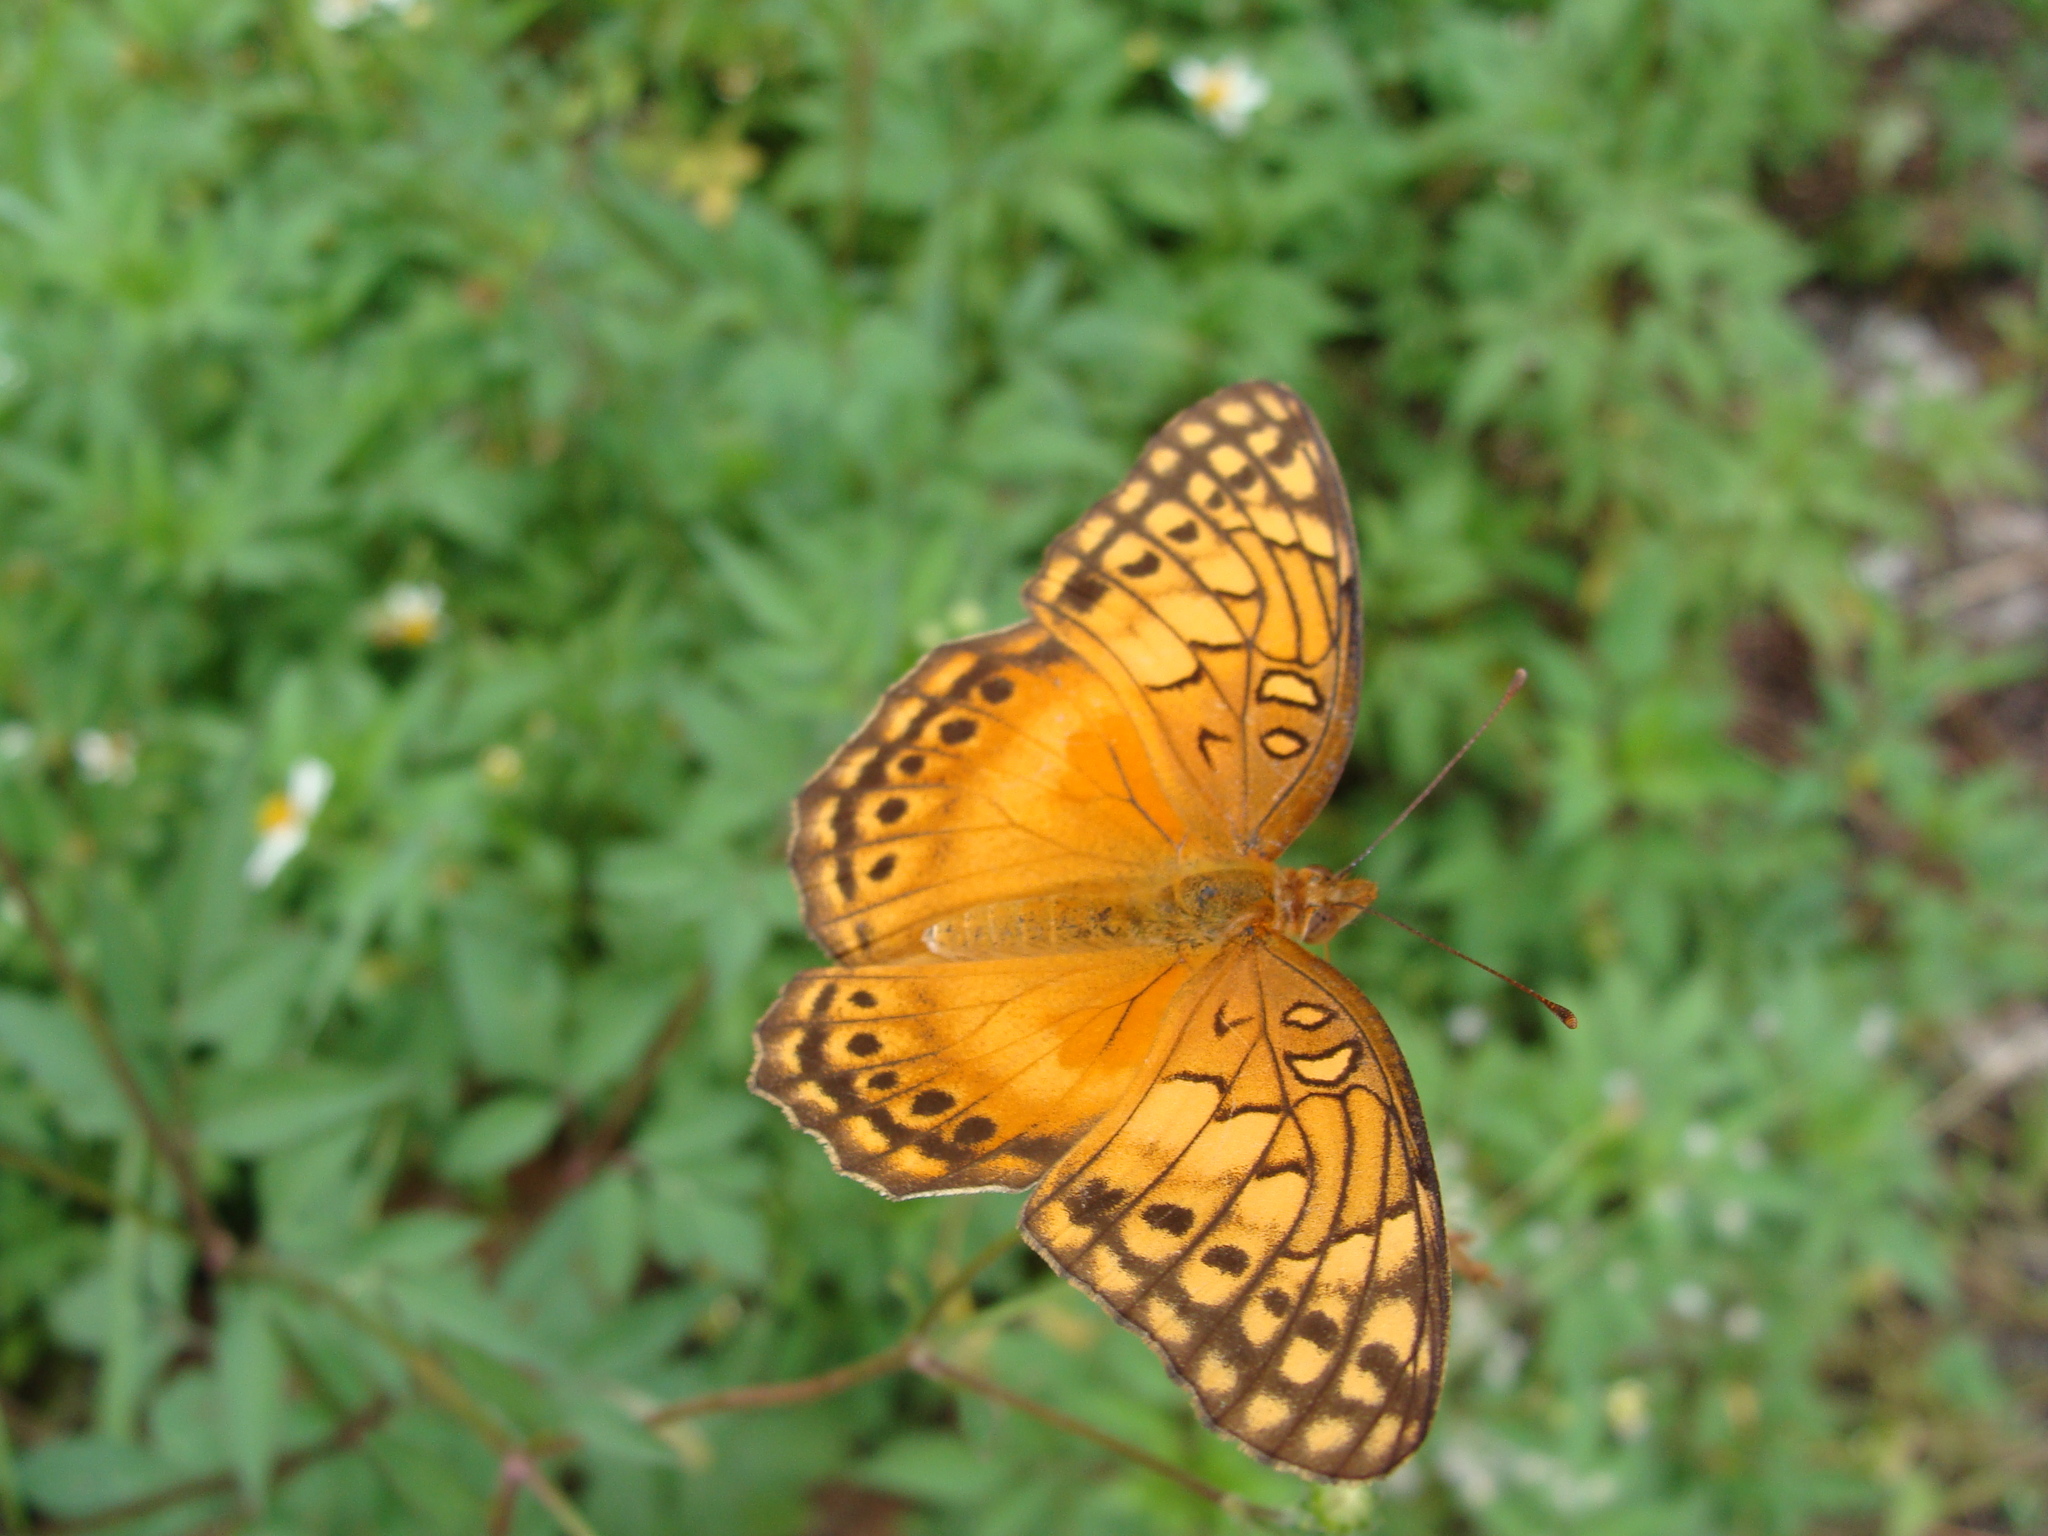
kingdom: Animalia
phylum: Arthropoda
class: Insecta
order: Lepidoptera
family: Nymphalidae
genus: Euptoieta
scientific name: Euptoieta hegesia
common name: Mexican fritillary
